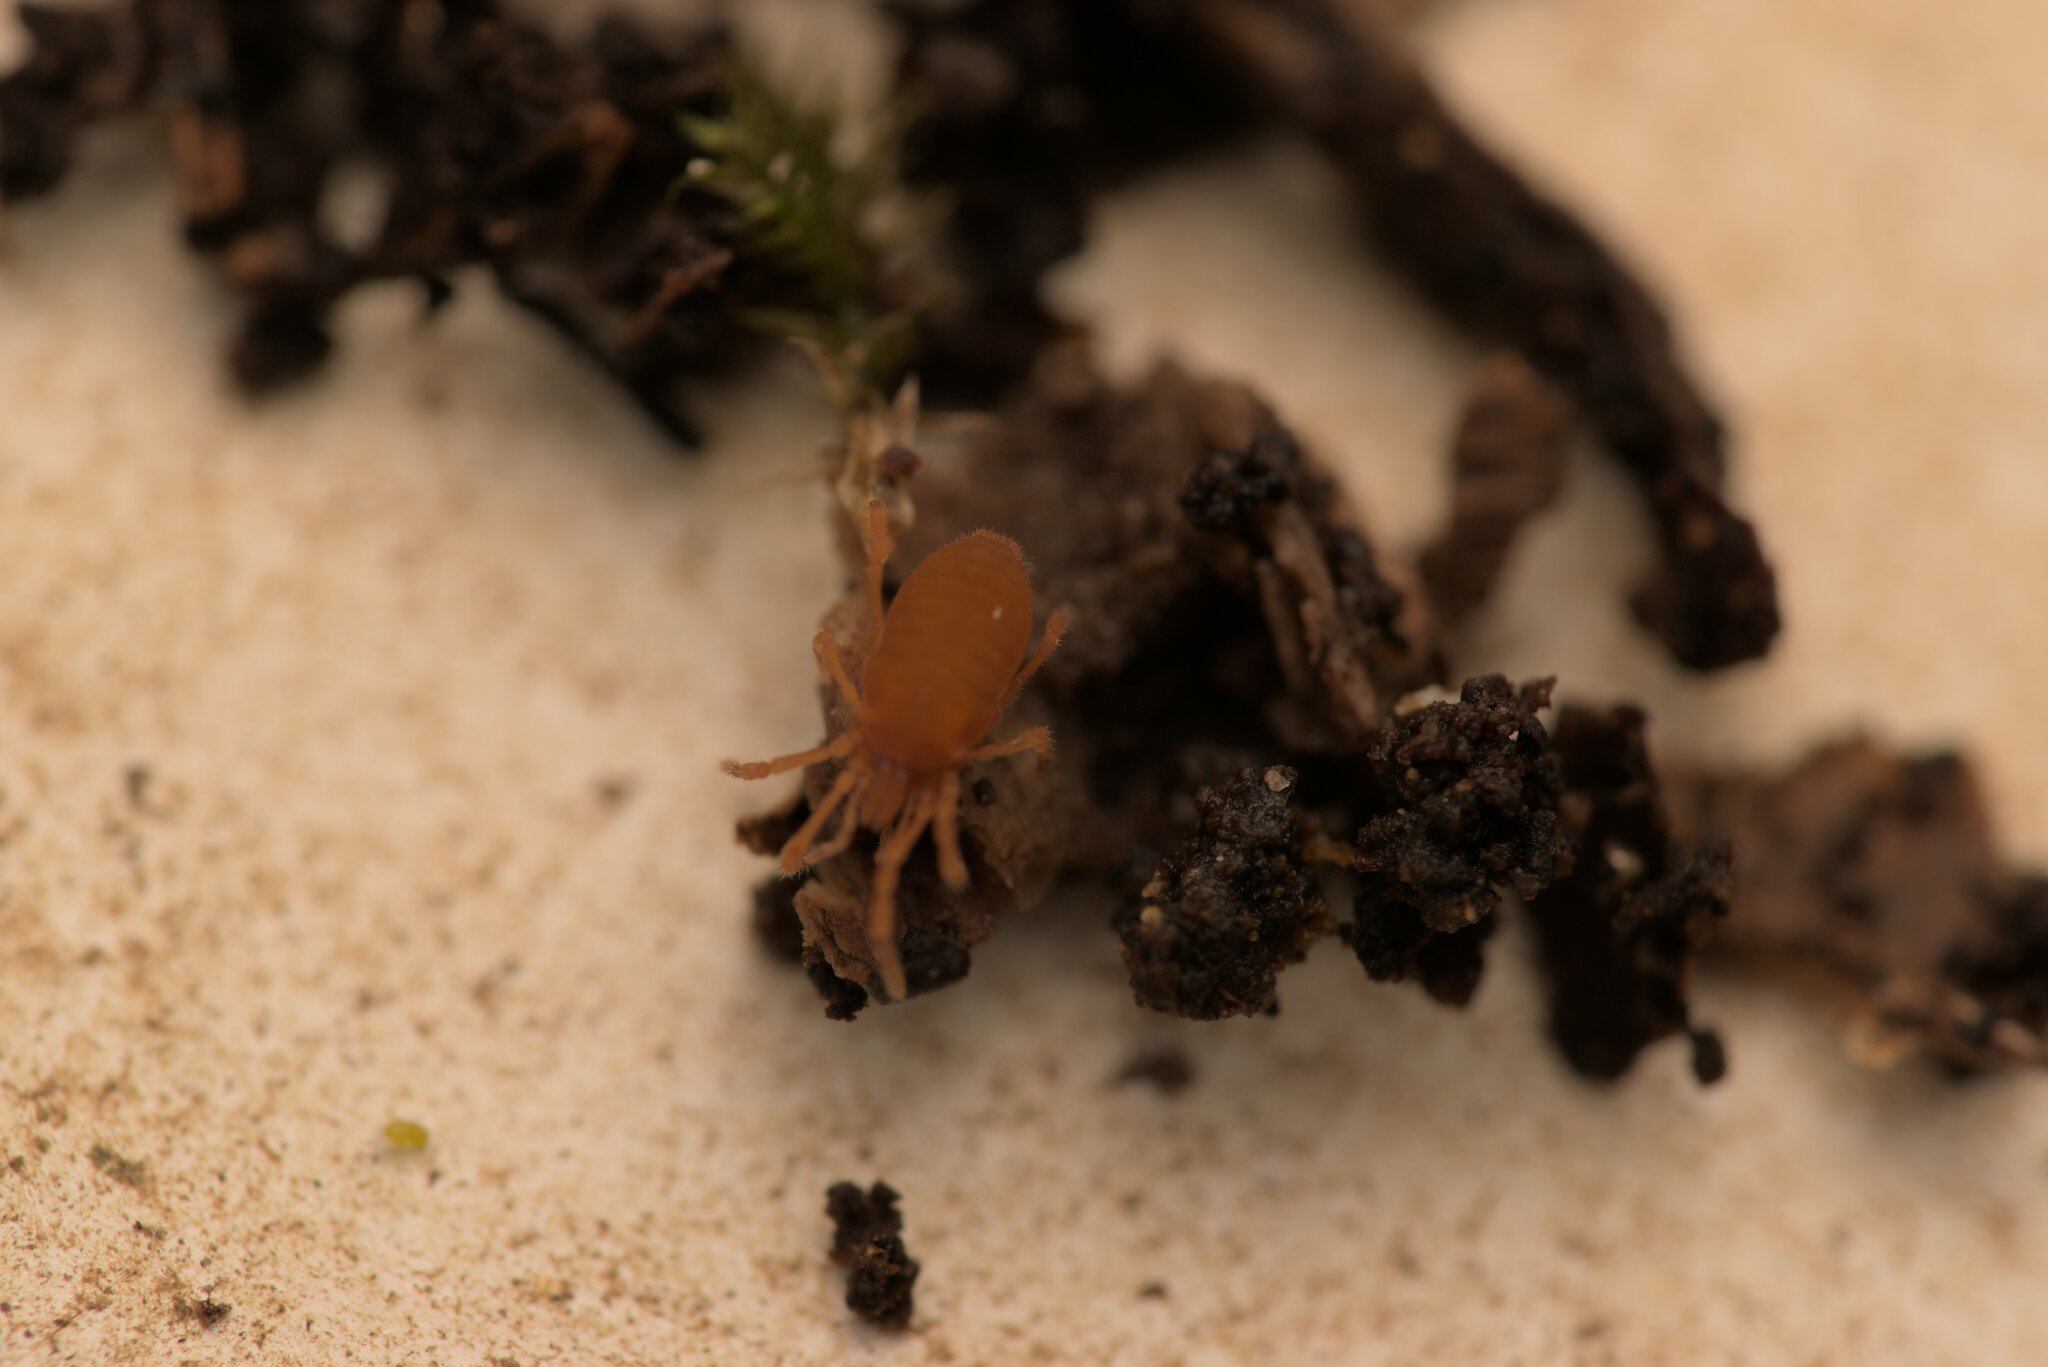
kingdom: Animalia
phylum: Arthropoda
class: Arachnida
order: Opiliones
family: Sironidae
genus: Siro
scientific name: Siro rubens
